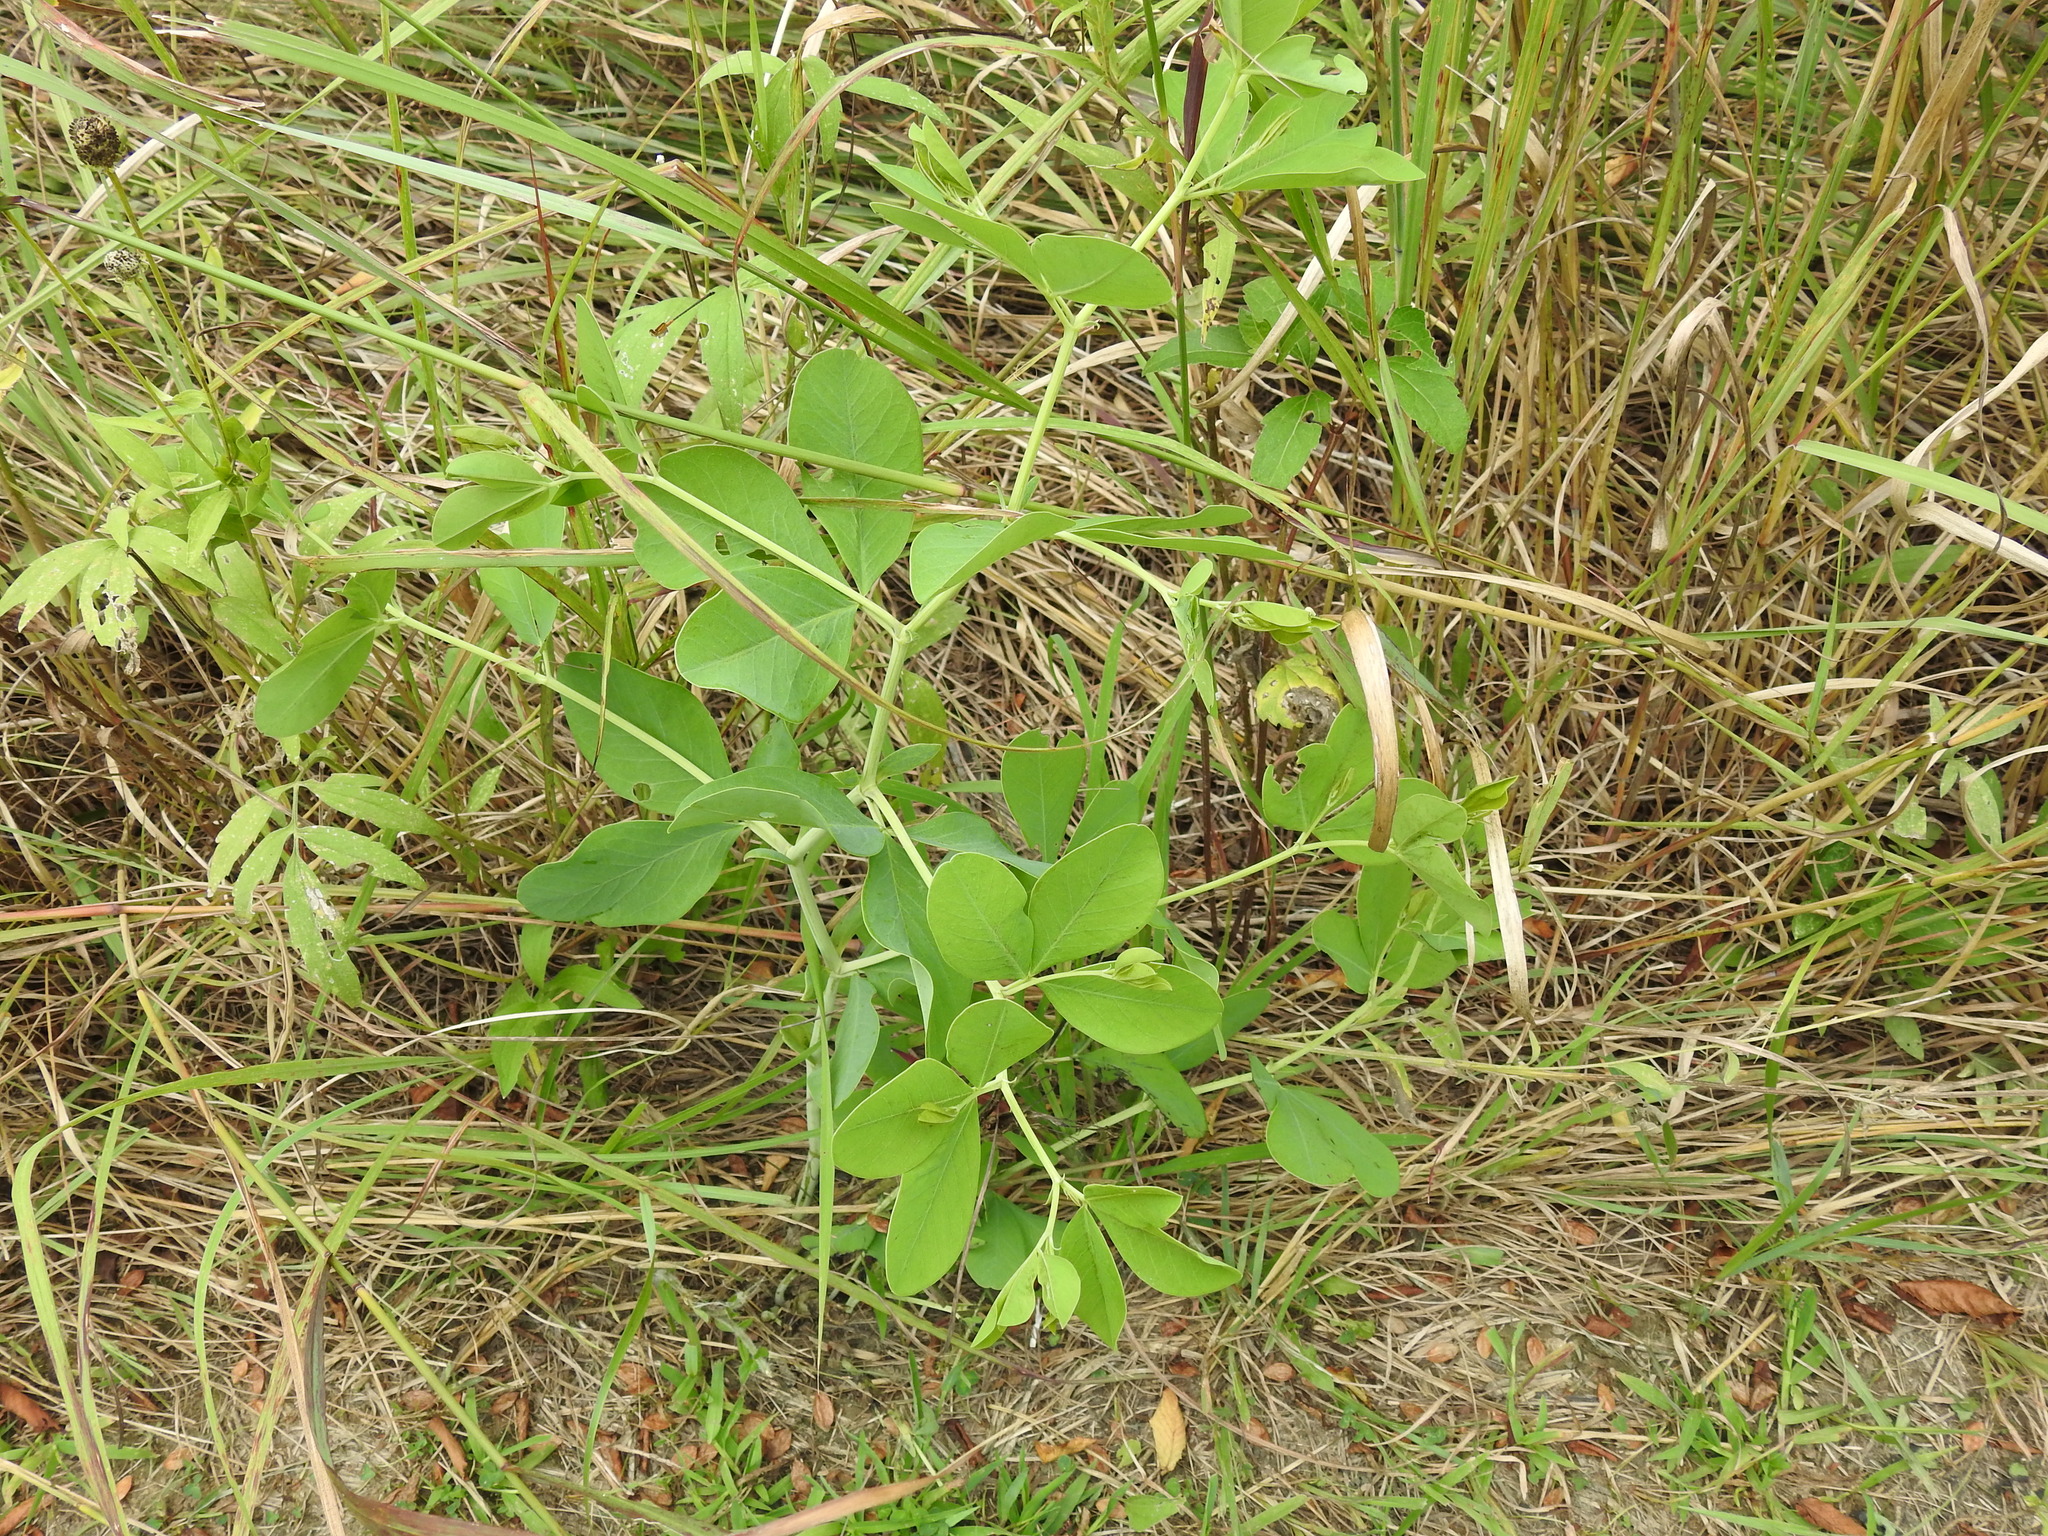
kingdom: Plantae
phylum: Tracheophyta
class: Magnoliopsida
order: Fabales
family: Fabaceae
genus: Baptisia
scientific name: Baptisia alba
